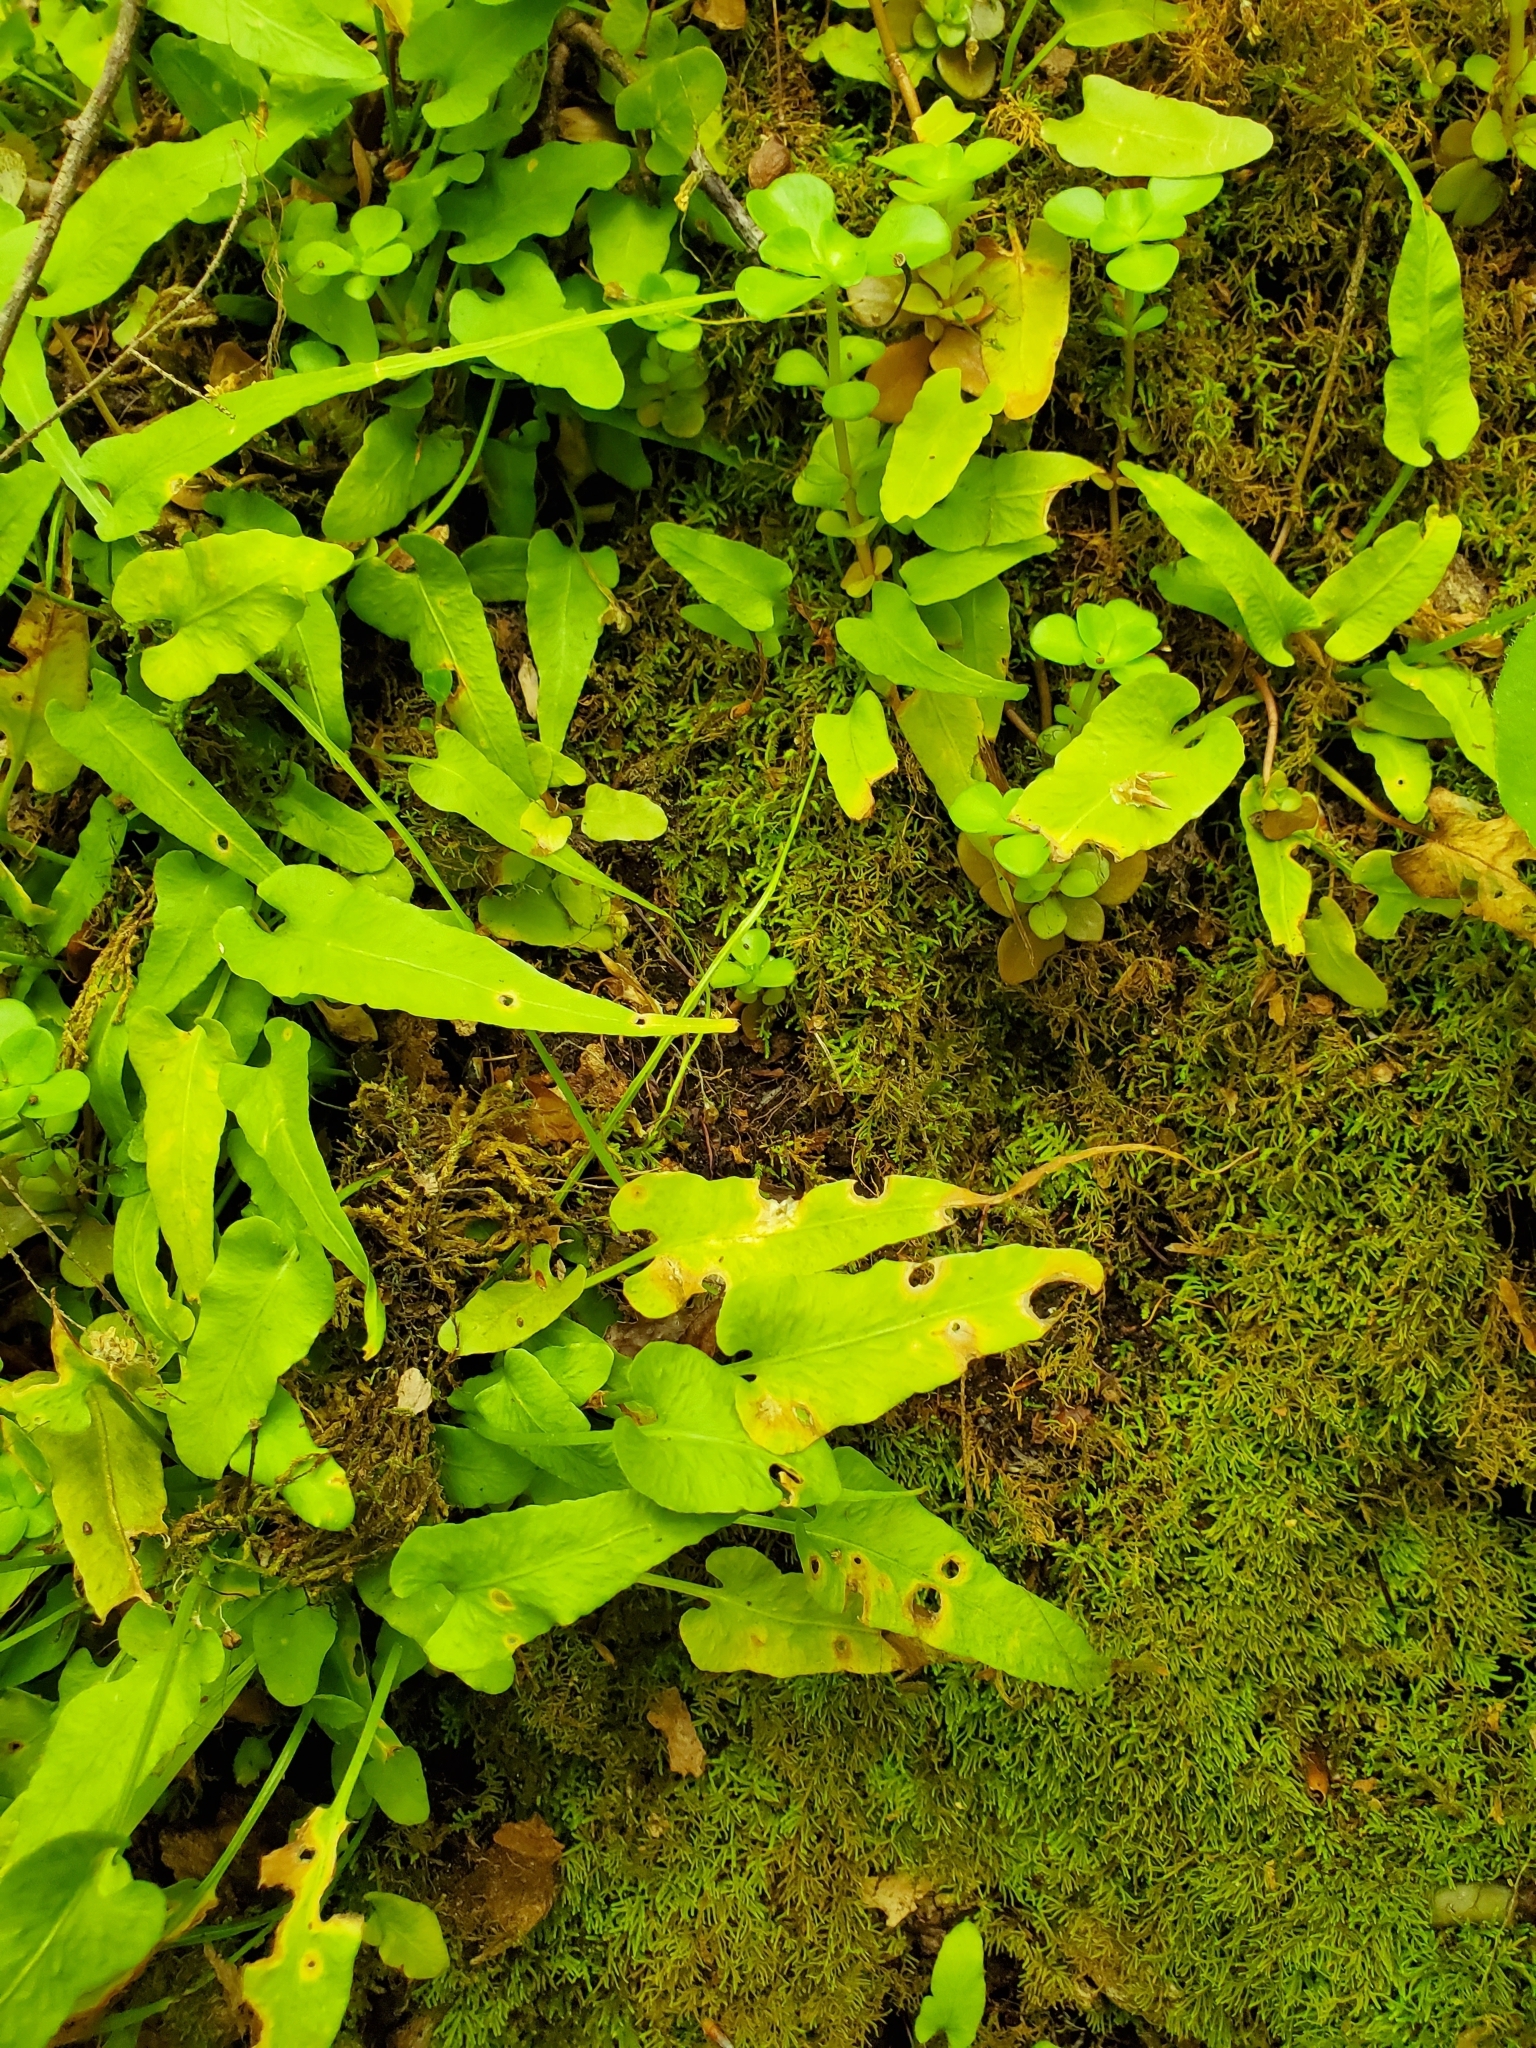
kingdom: Plantae
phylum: Tracheophyta
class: Polypodiopsida
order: Polypodiales
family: Aspleniaceae
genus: Asplenium
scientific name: Asplenium rhizophyllum
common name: Walking fern
